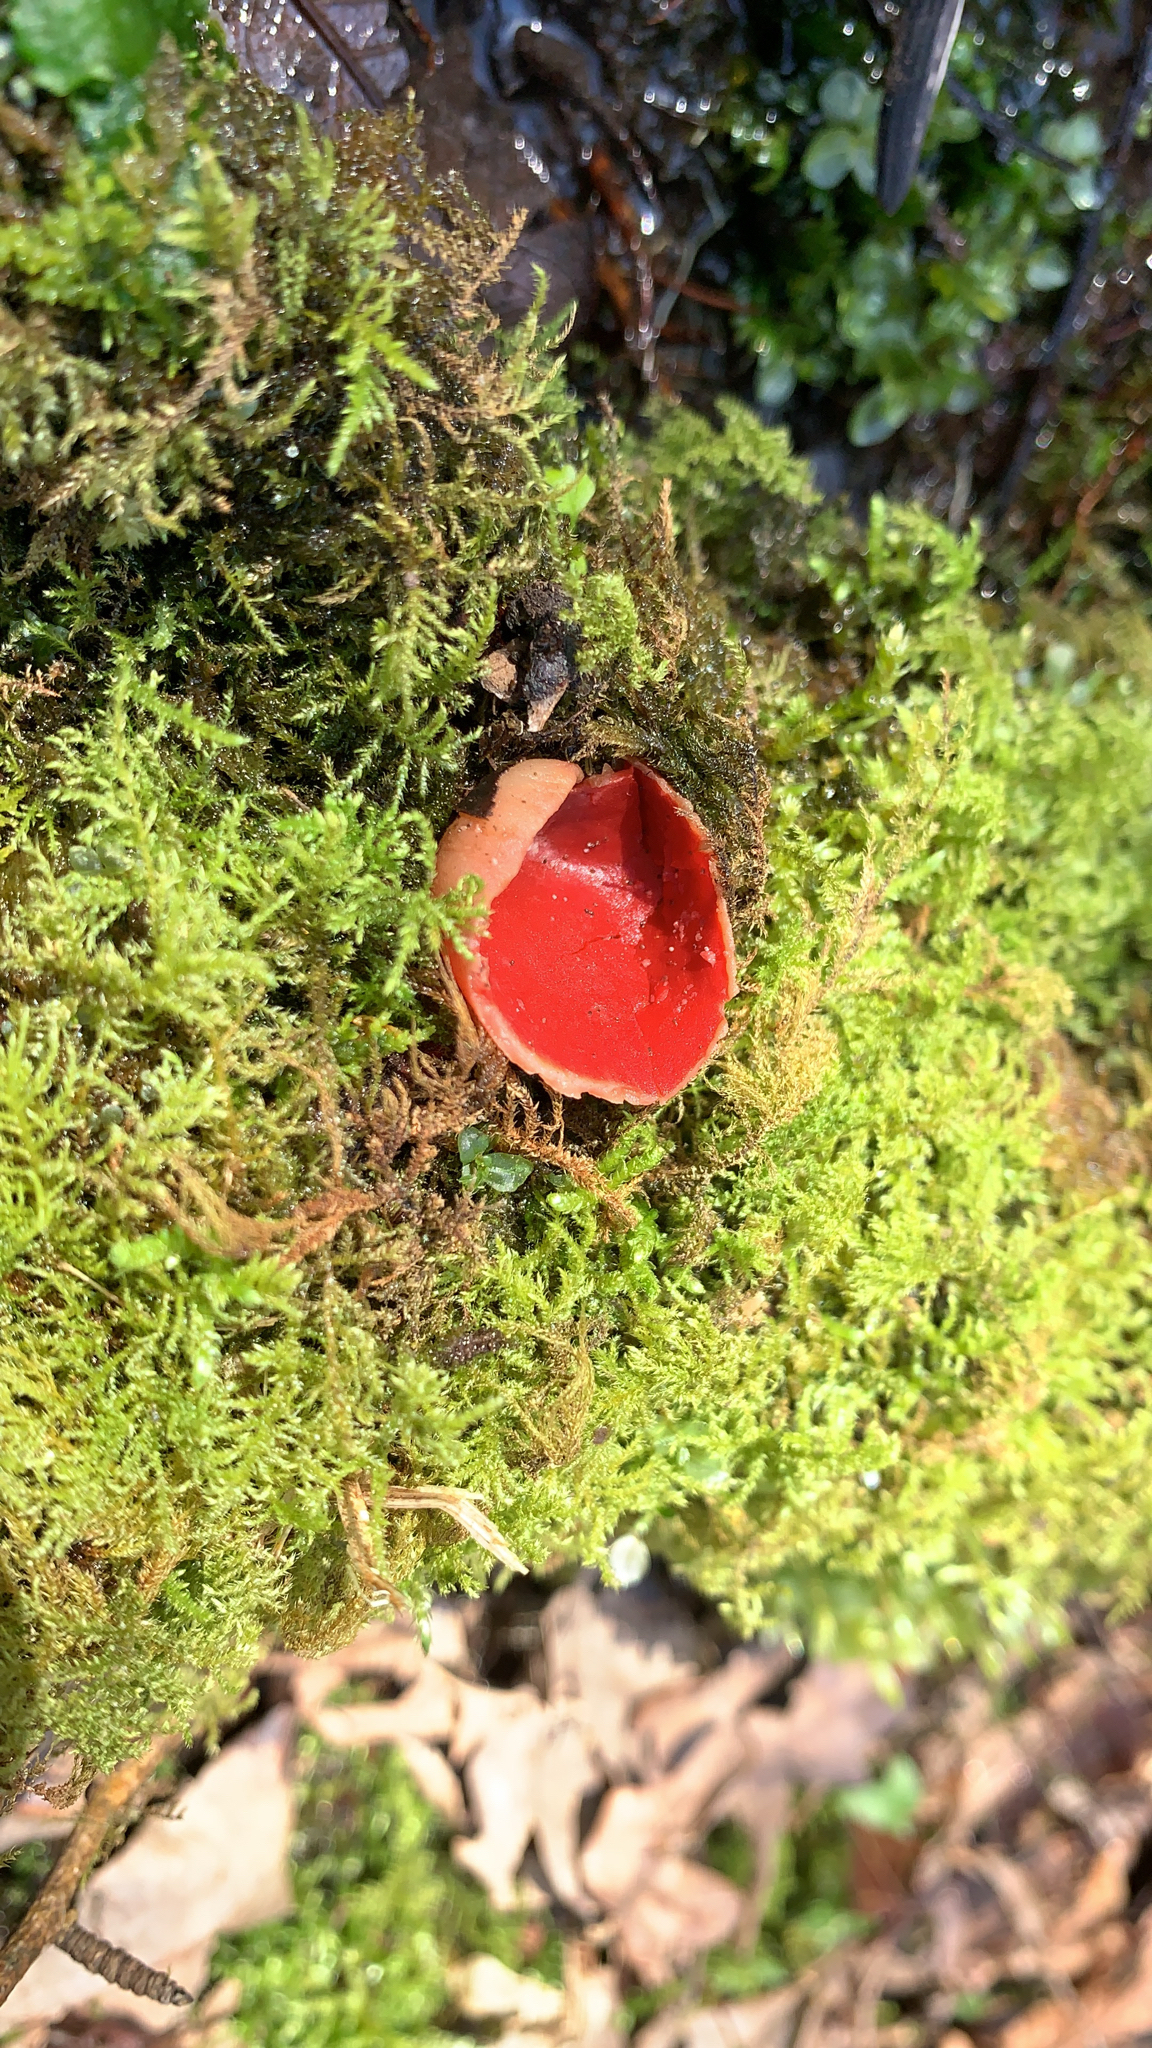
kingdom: Fungi
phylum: Ascomycota
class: Pezizomycetes
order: Pezizales
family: Sarcoscyphaceae
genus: Sarcoscypha
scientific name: Sarcoscypha
